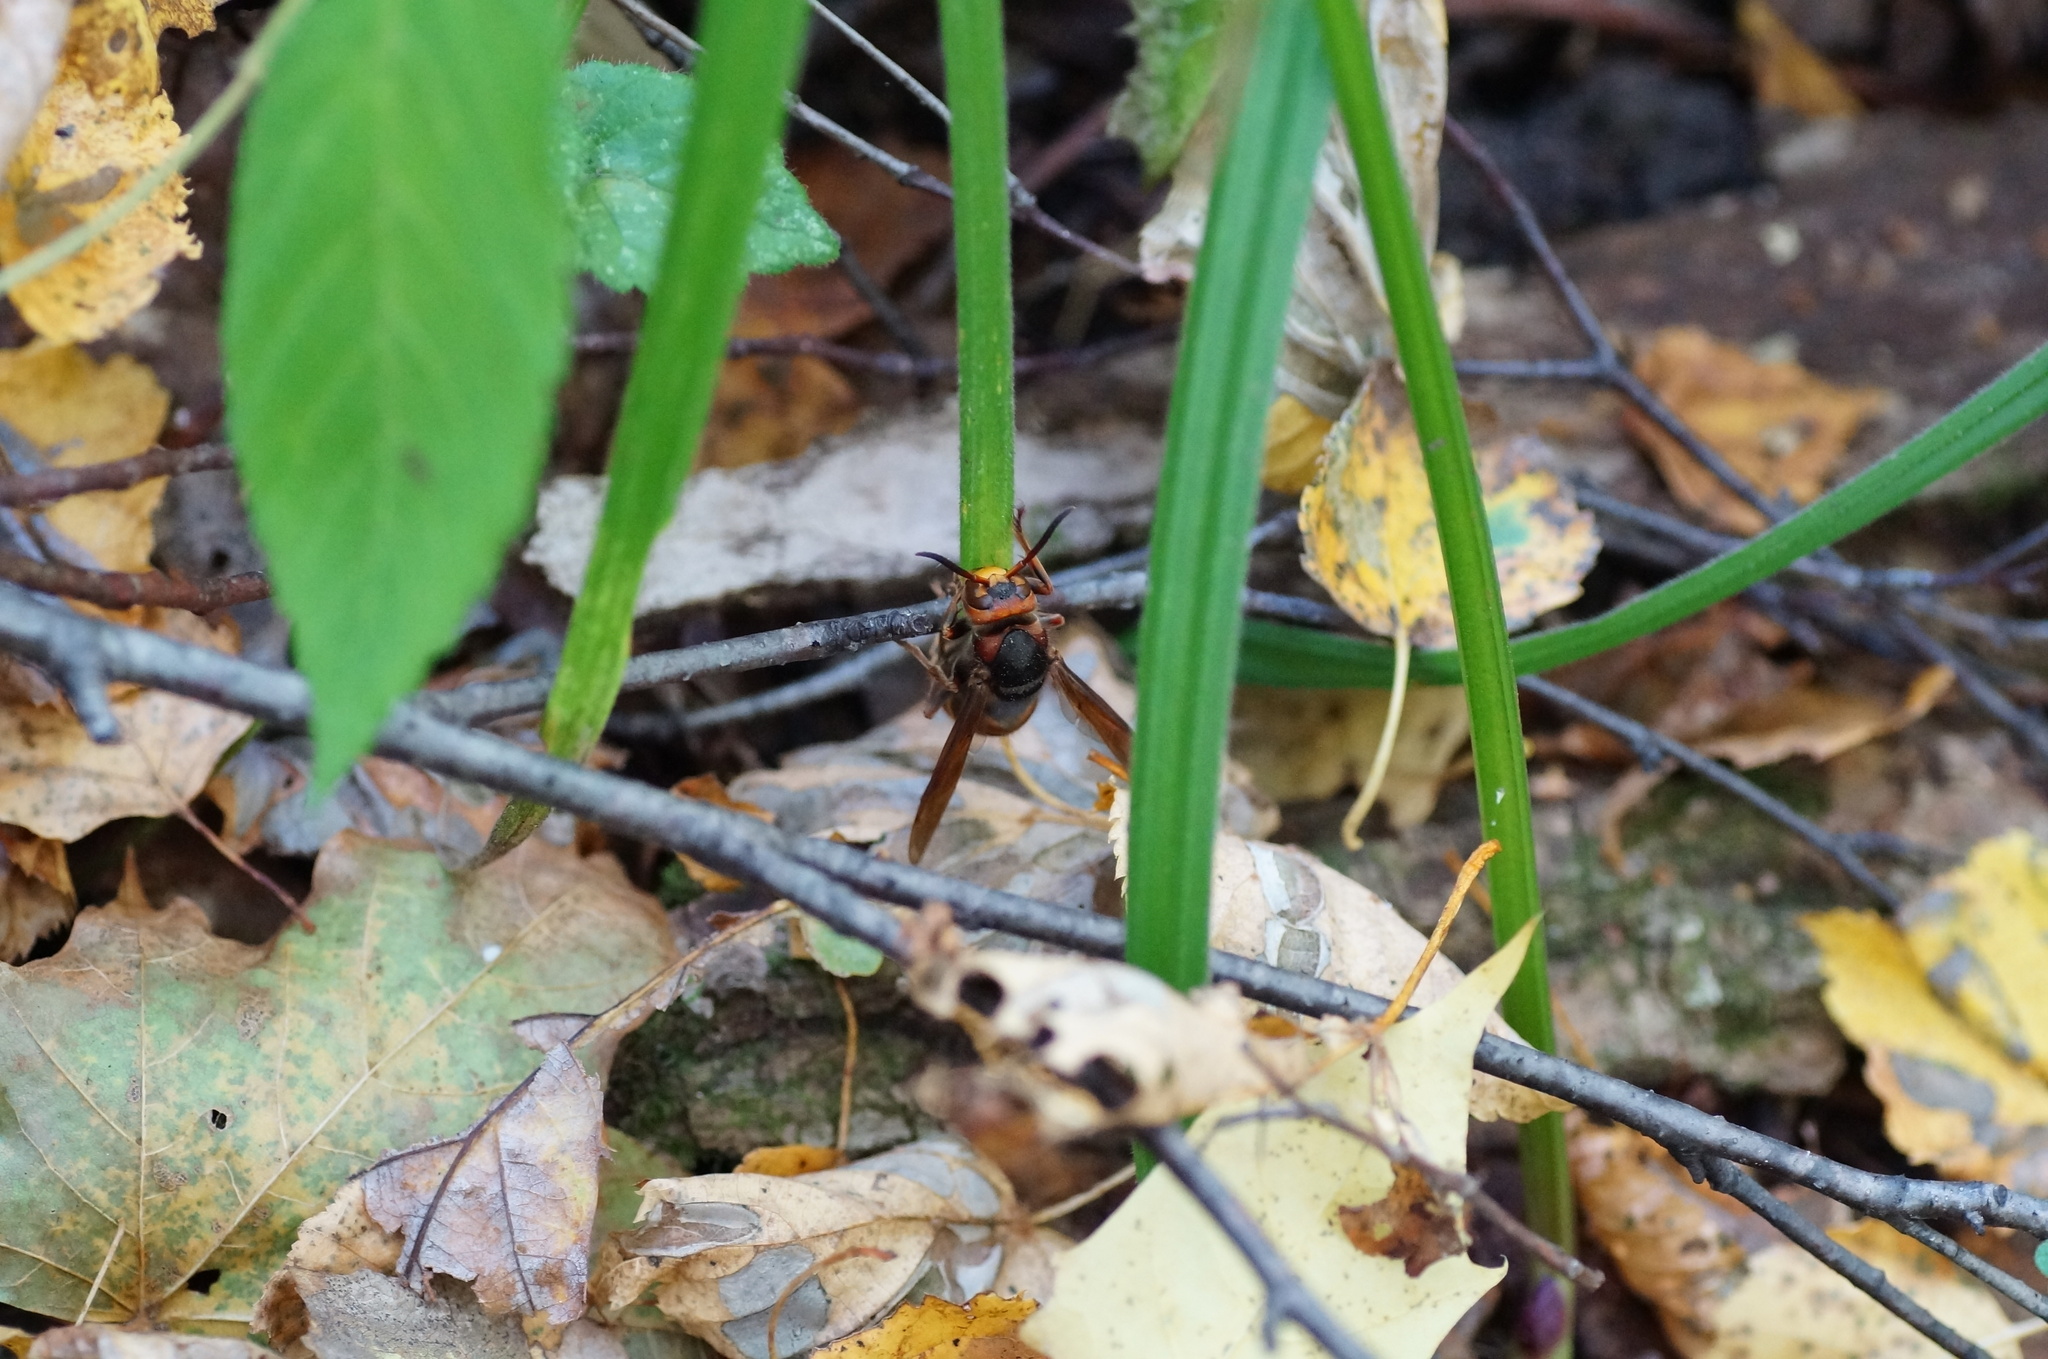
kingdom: Animalia
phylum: Arthropoda
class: Insecta
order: Hymenoptera
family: Vespidae
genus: Vespa
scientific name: Vespa crabro
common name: Hornet
